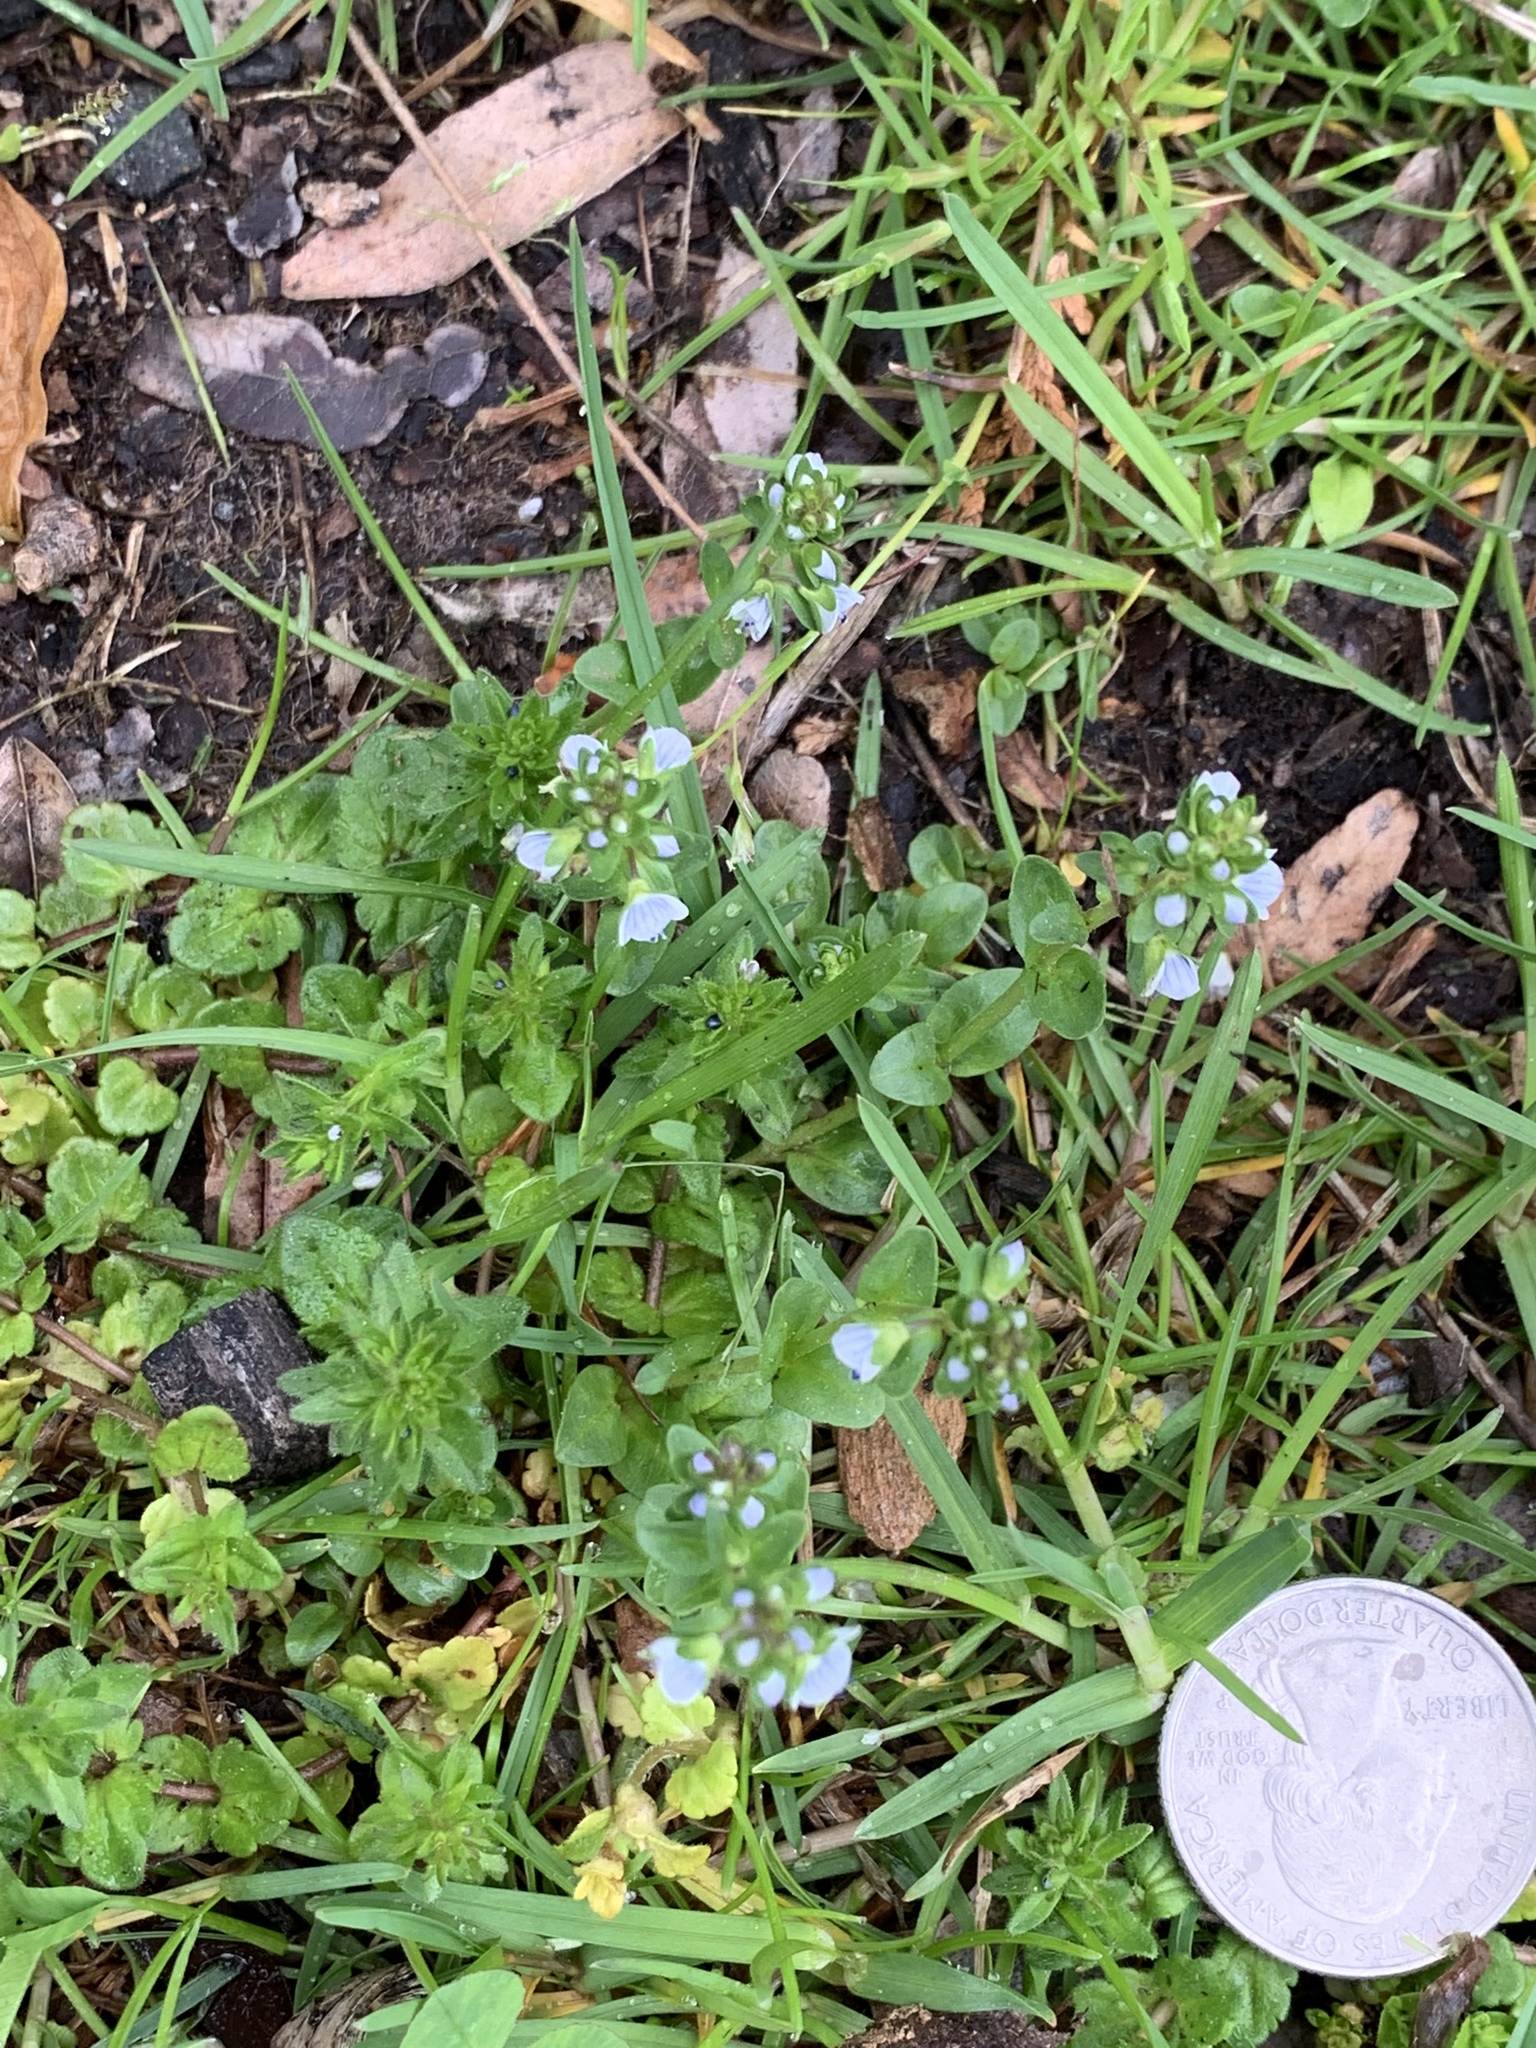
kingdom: Plantae
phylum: Tracheophyta
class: Magnoliopsida
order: Lamiales
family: Plantaginaceae
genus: Veronica
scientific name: Veronica serpyllifolia
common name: Thyme-leaved speedwell
